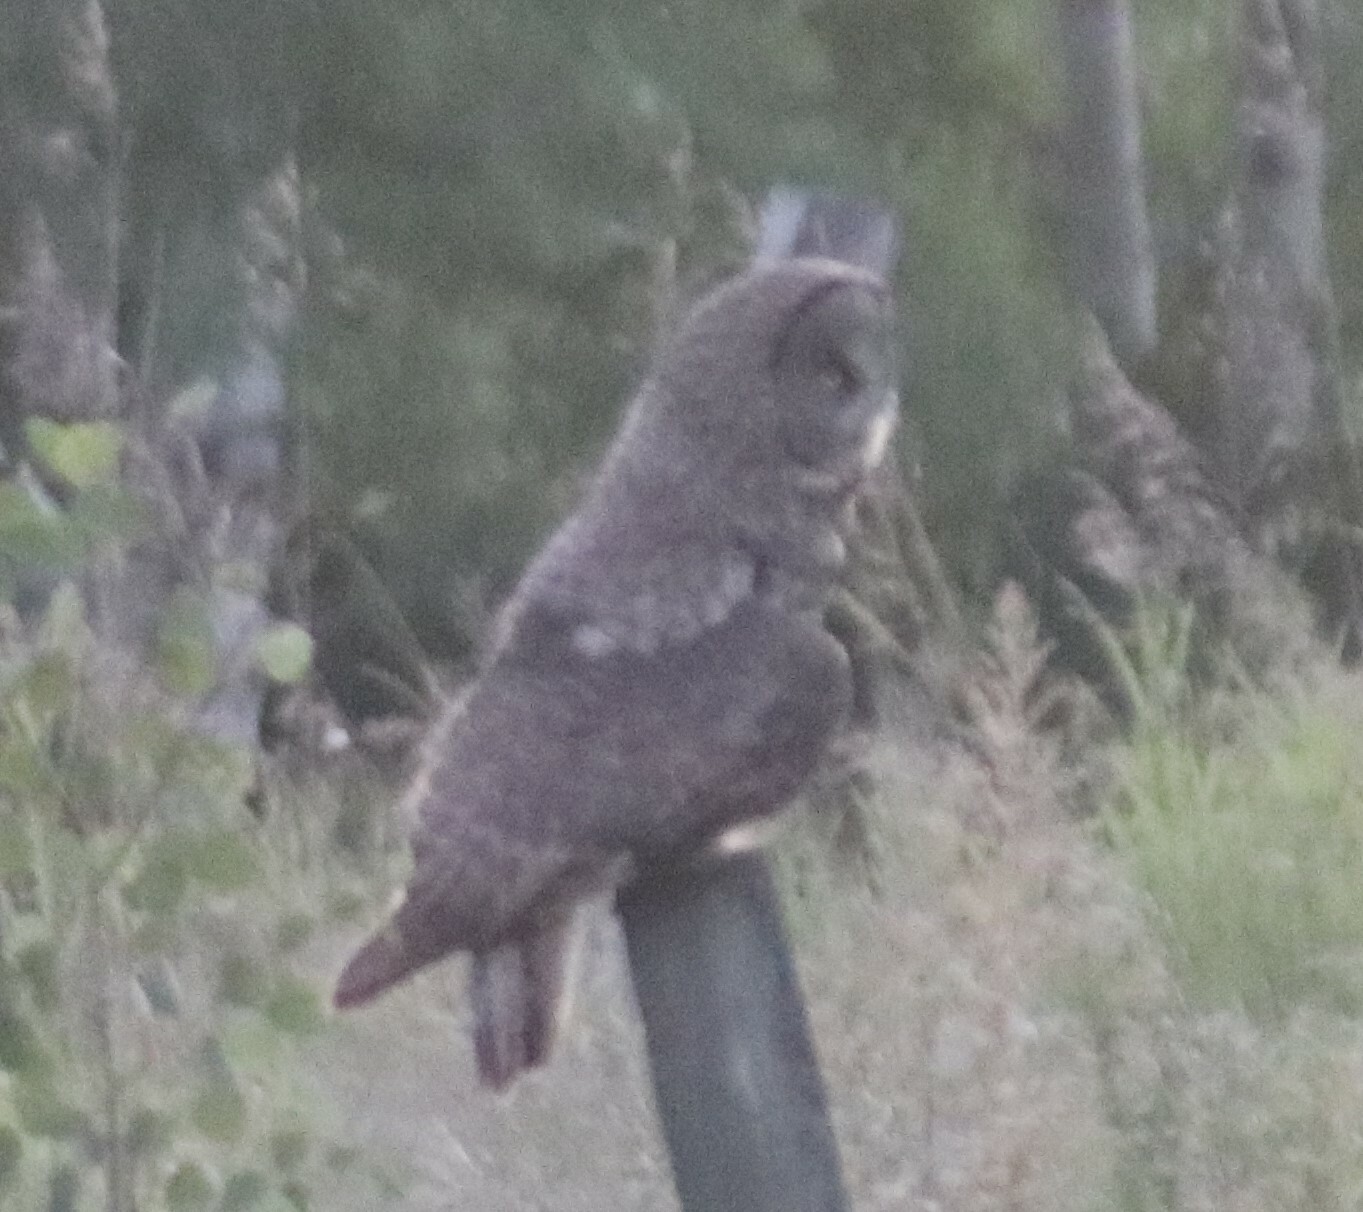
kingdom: Animalia
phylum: Chordata
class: Aves
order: Strigiformes
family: Strigidae
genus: Strix
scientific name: Strix nebulosa
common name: Great grey owl
